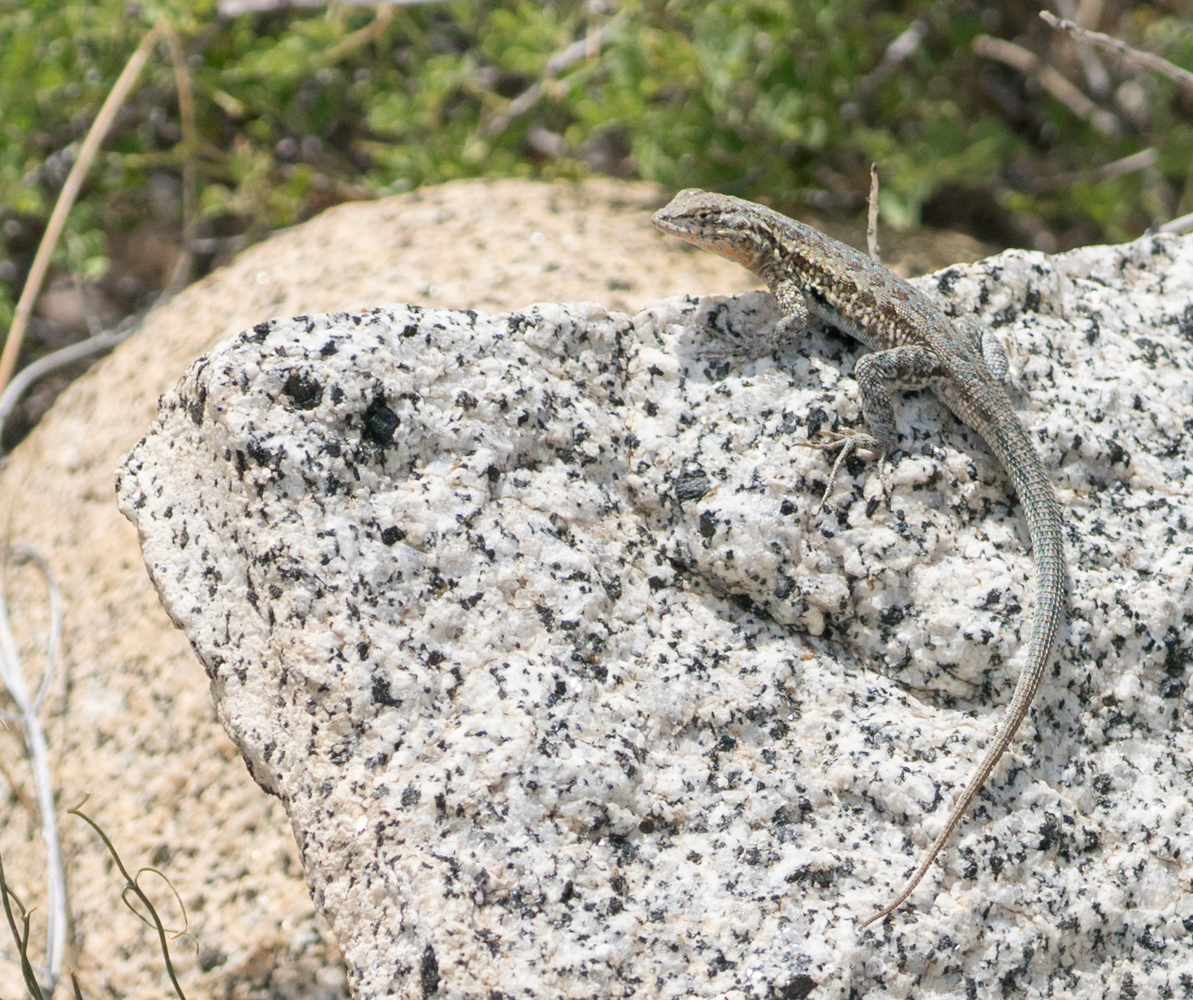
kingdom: Animalia
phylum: Chordata
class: Squamata
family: Phrynosomatidae
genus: Uta
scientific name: Uta stansburiana
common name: Side-blotched lizard
